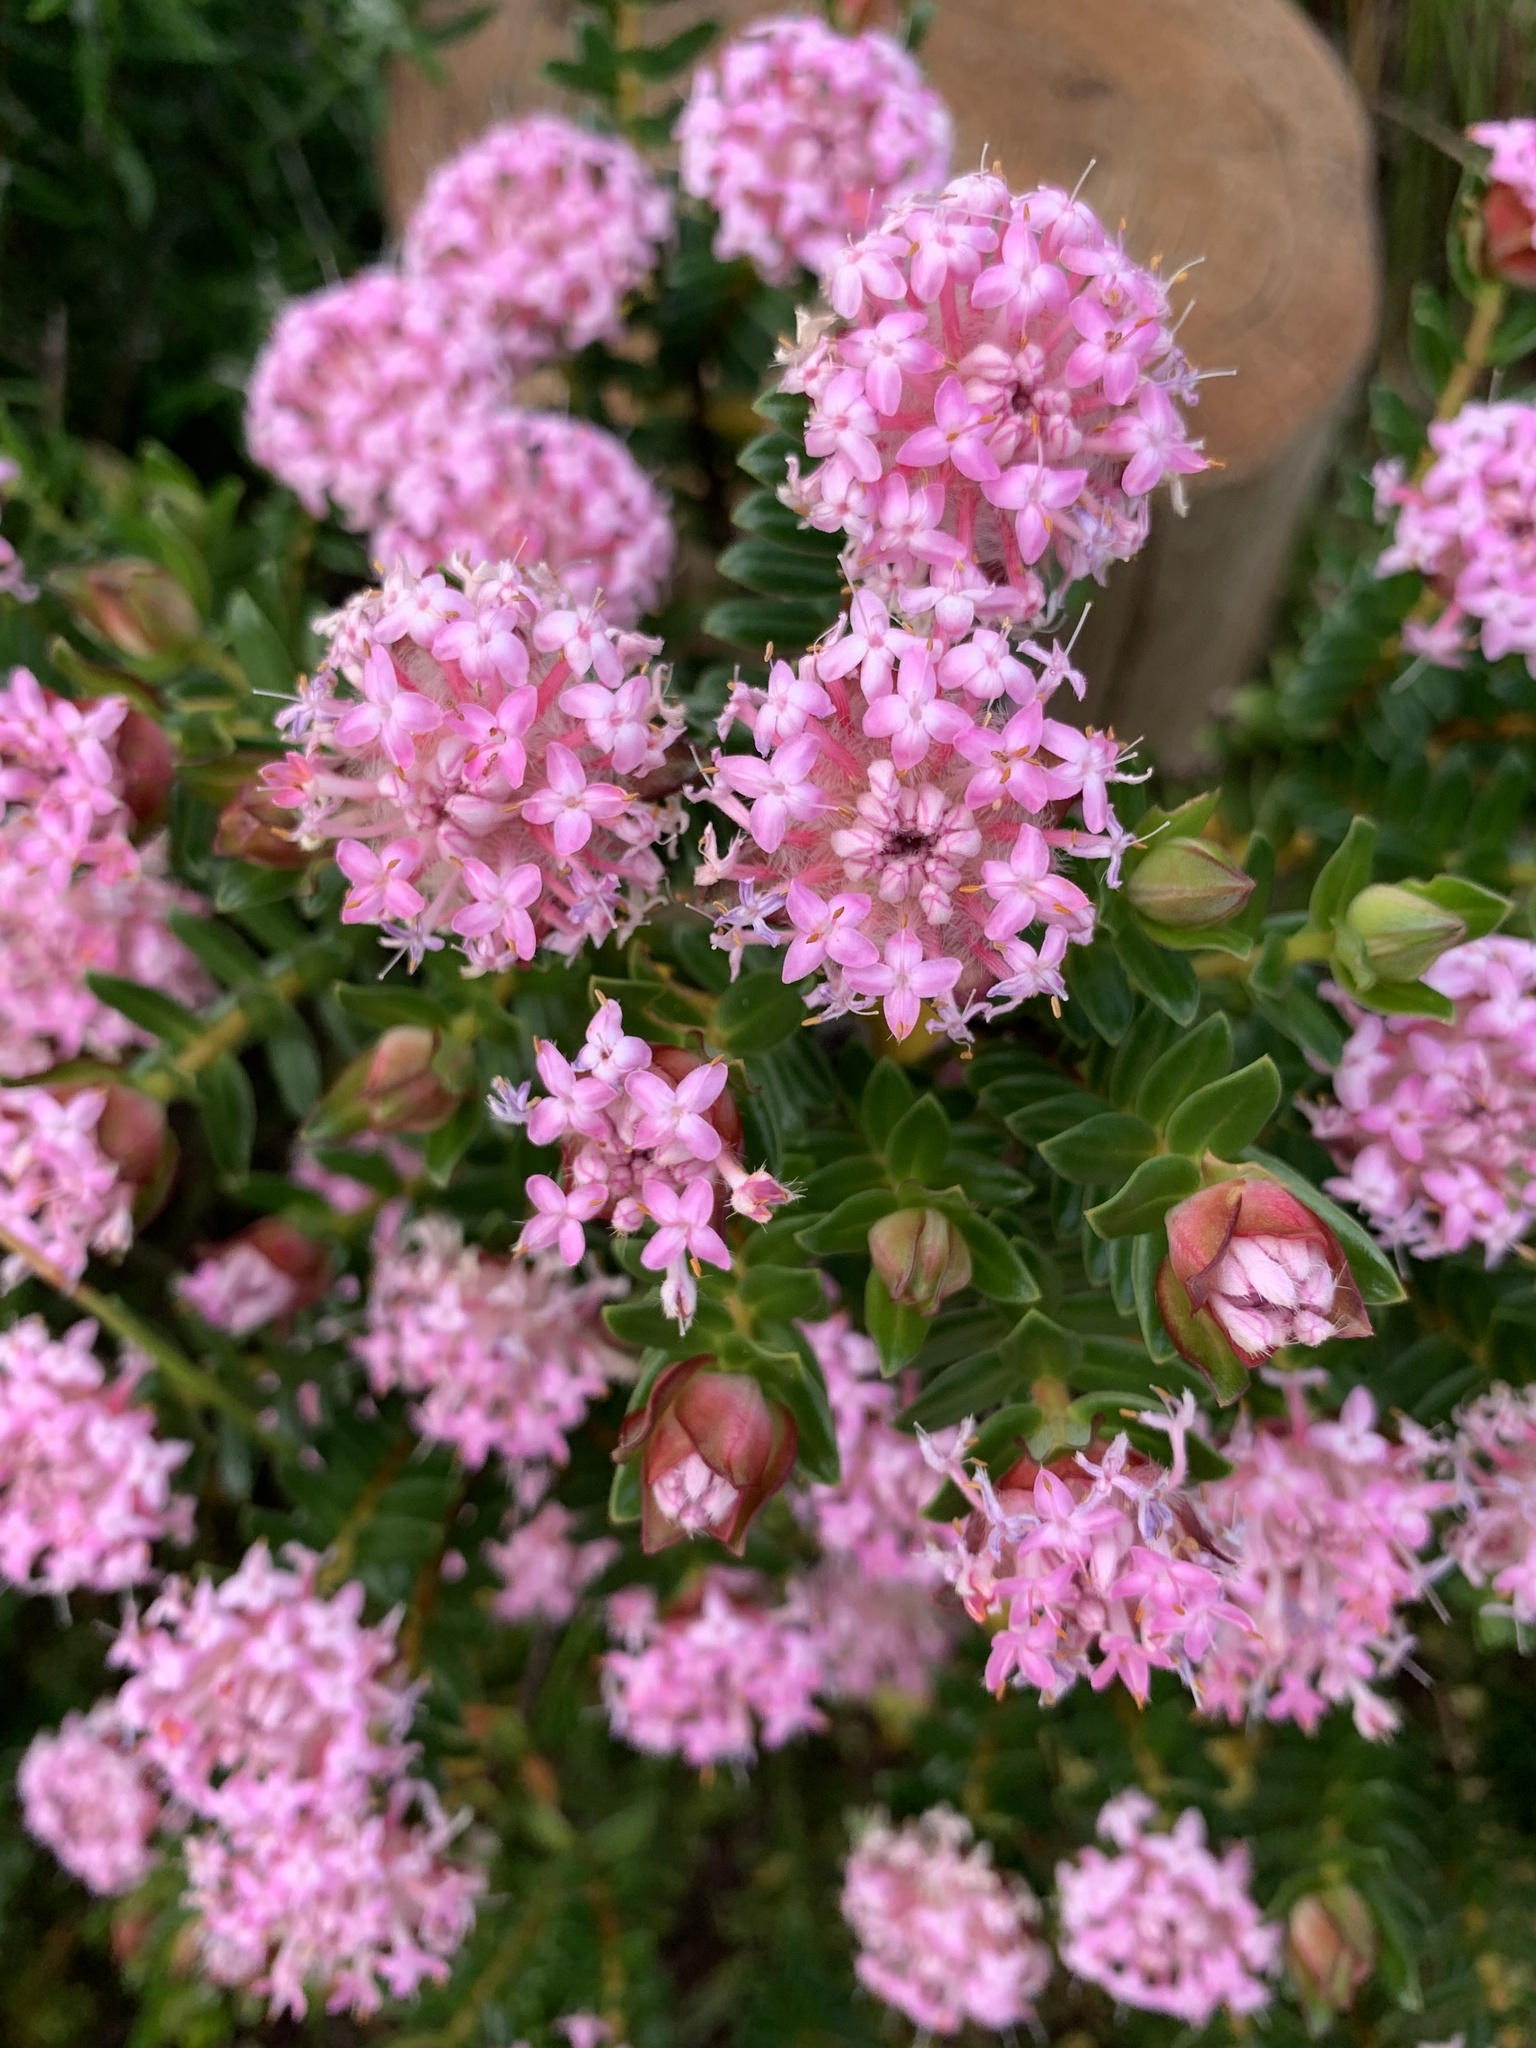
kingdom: Plantae
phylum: Tracheophyta
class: Magnoliopsida
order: Malvales
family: Thymelaeaceae
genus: Pimelea
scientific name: Pimelea ferruginea
